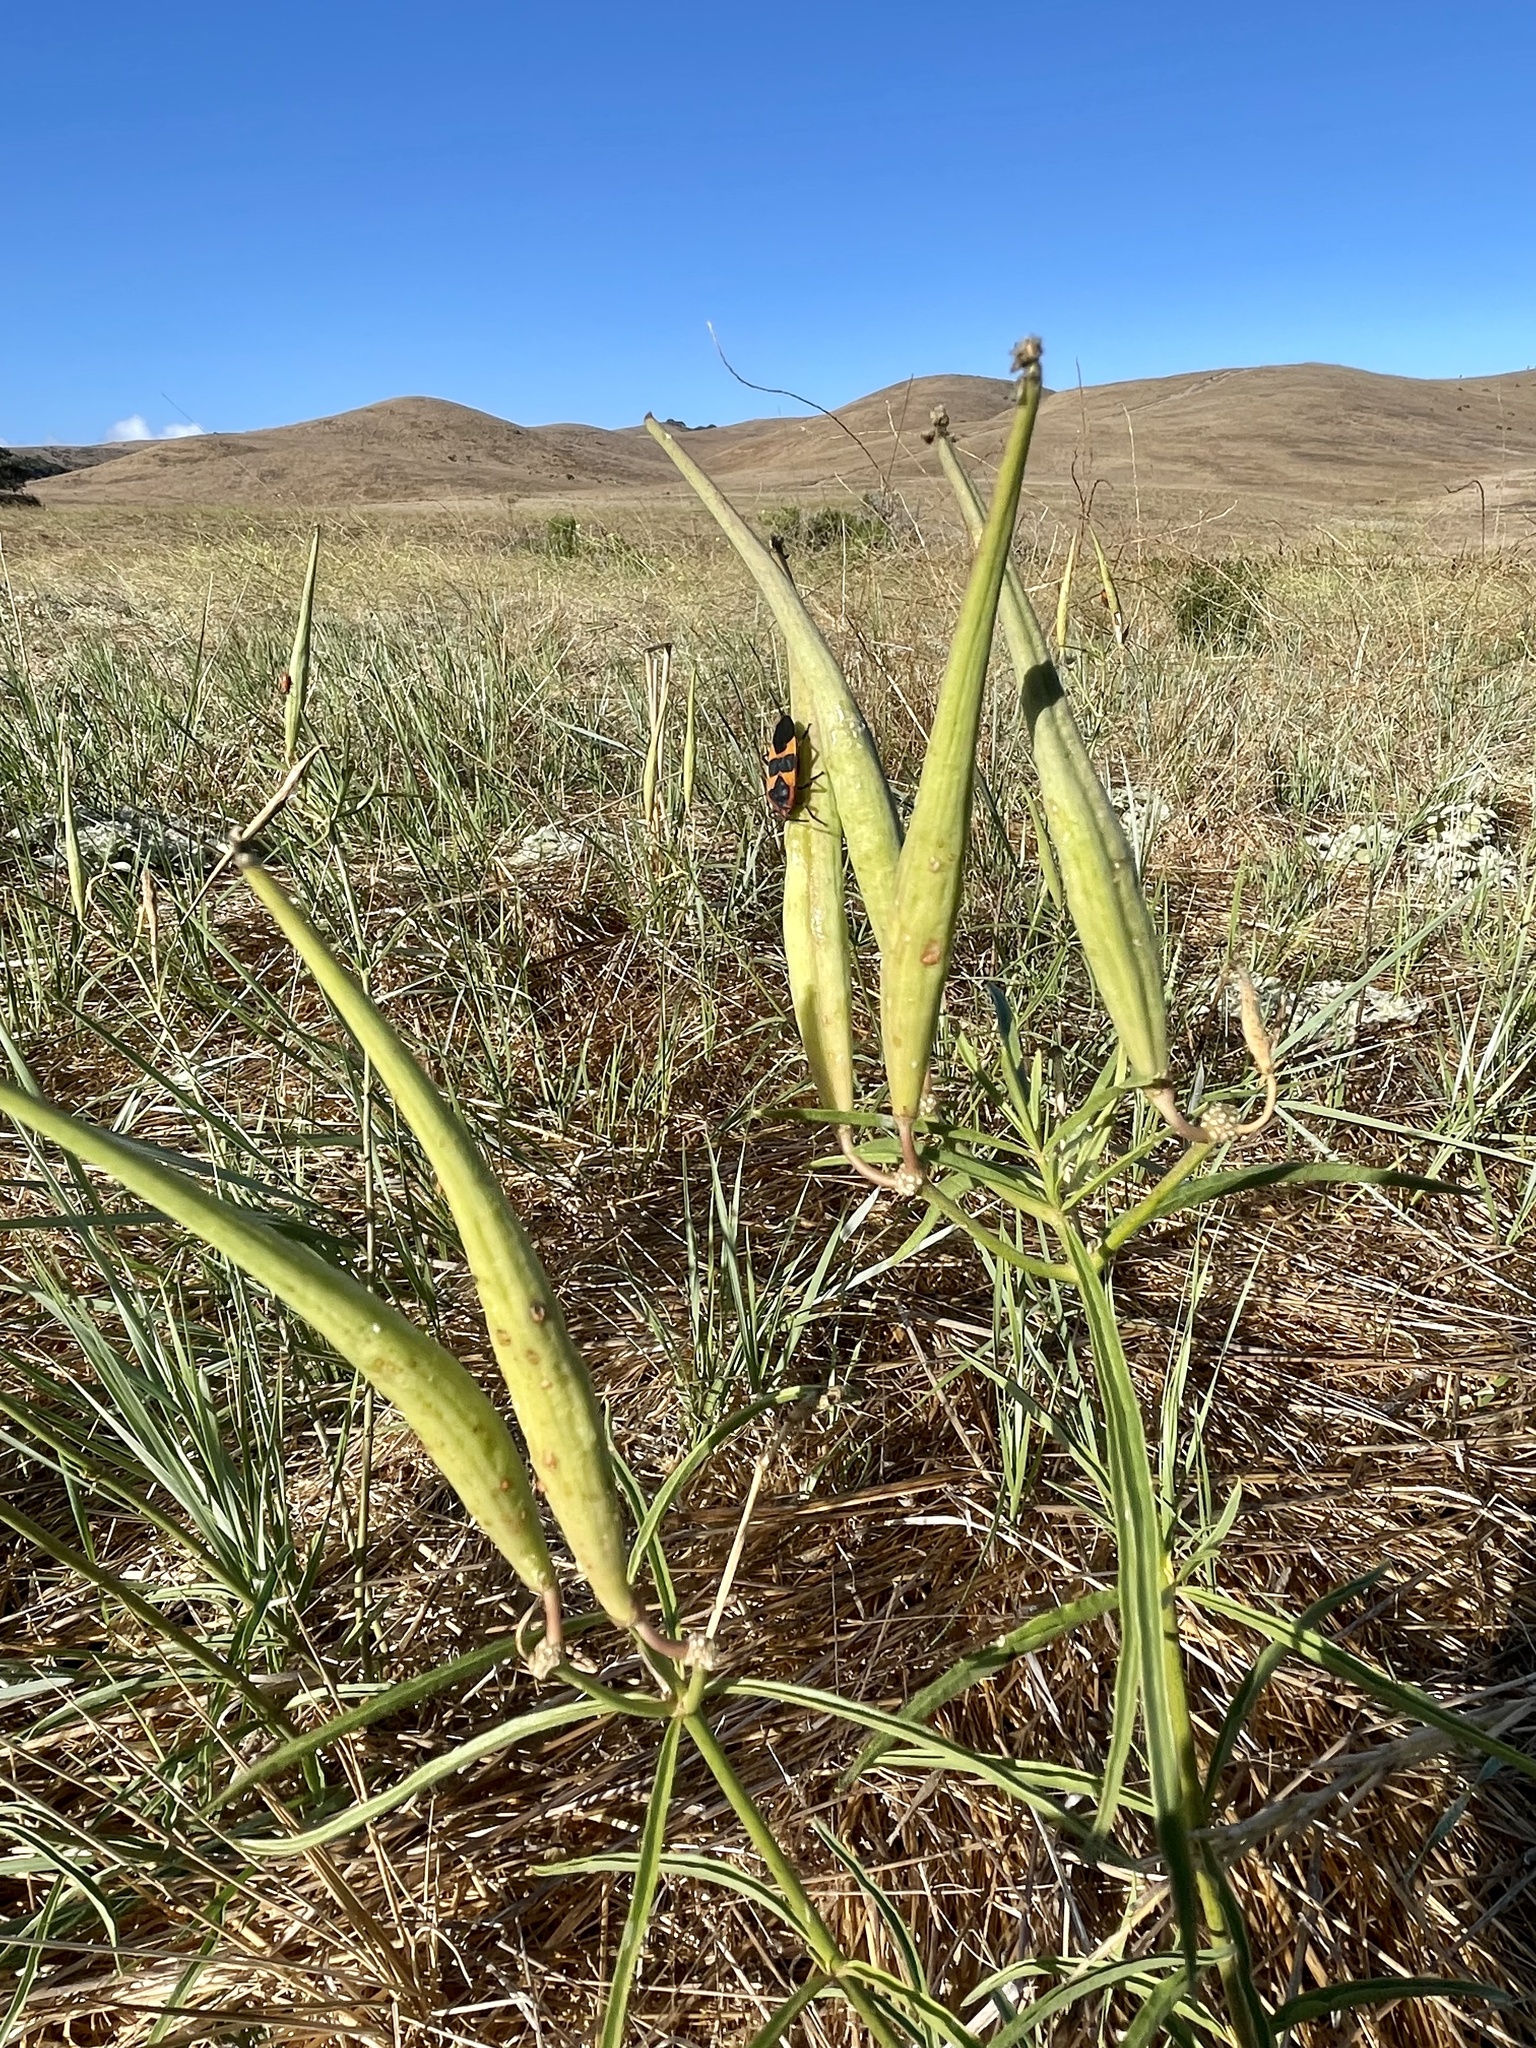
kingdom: Animalia
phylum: Arthropoda
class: Insecta
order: Hemiptera
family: Lygaeidae
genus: Oncopeltus
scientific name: Oncopeltus fasciatus
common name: Large milkweed bug
